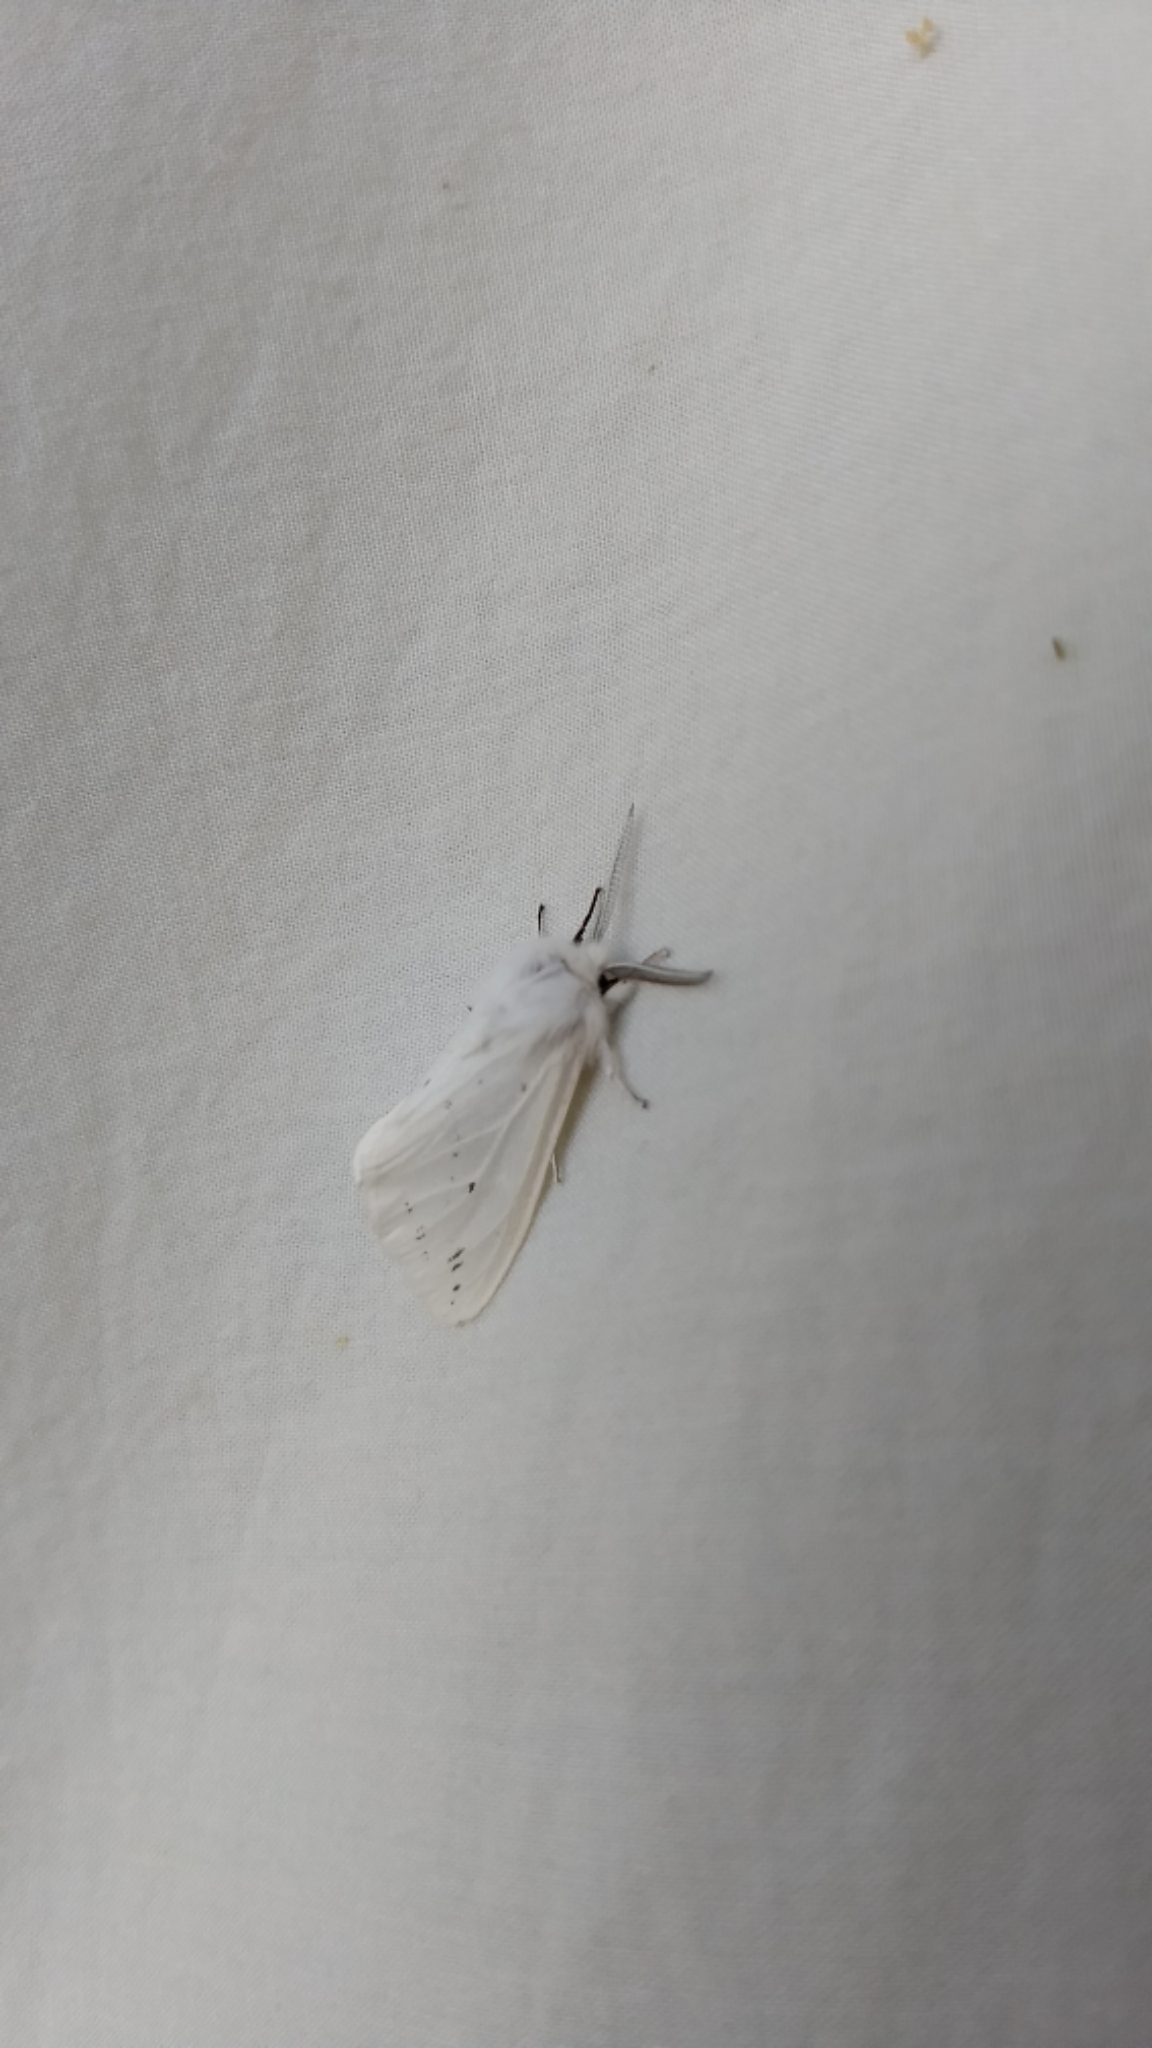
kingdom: Animalia
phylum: Arthropoda
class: Insecta
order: Lepidoptera
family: Erebidae
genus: Spilosoma
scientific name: Spilosoma congrua
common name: Agreeable tiger moth
